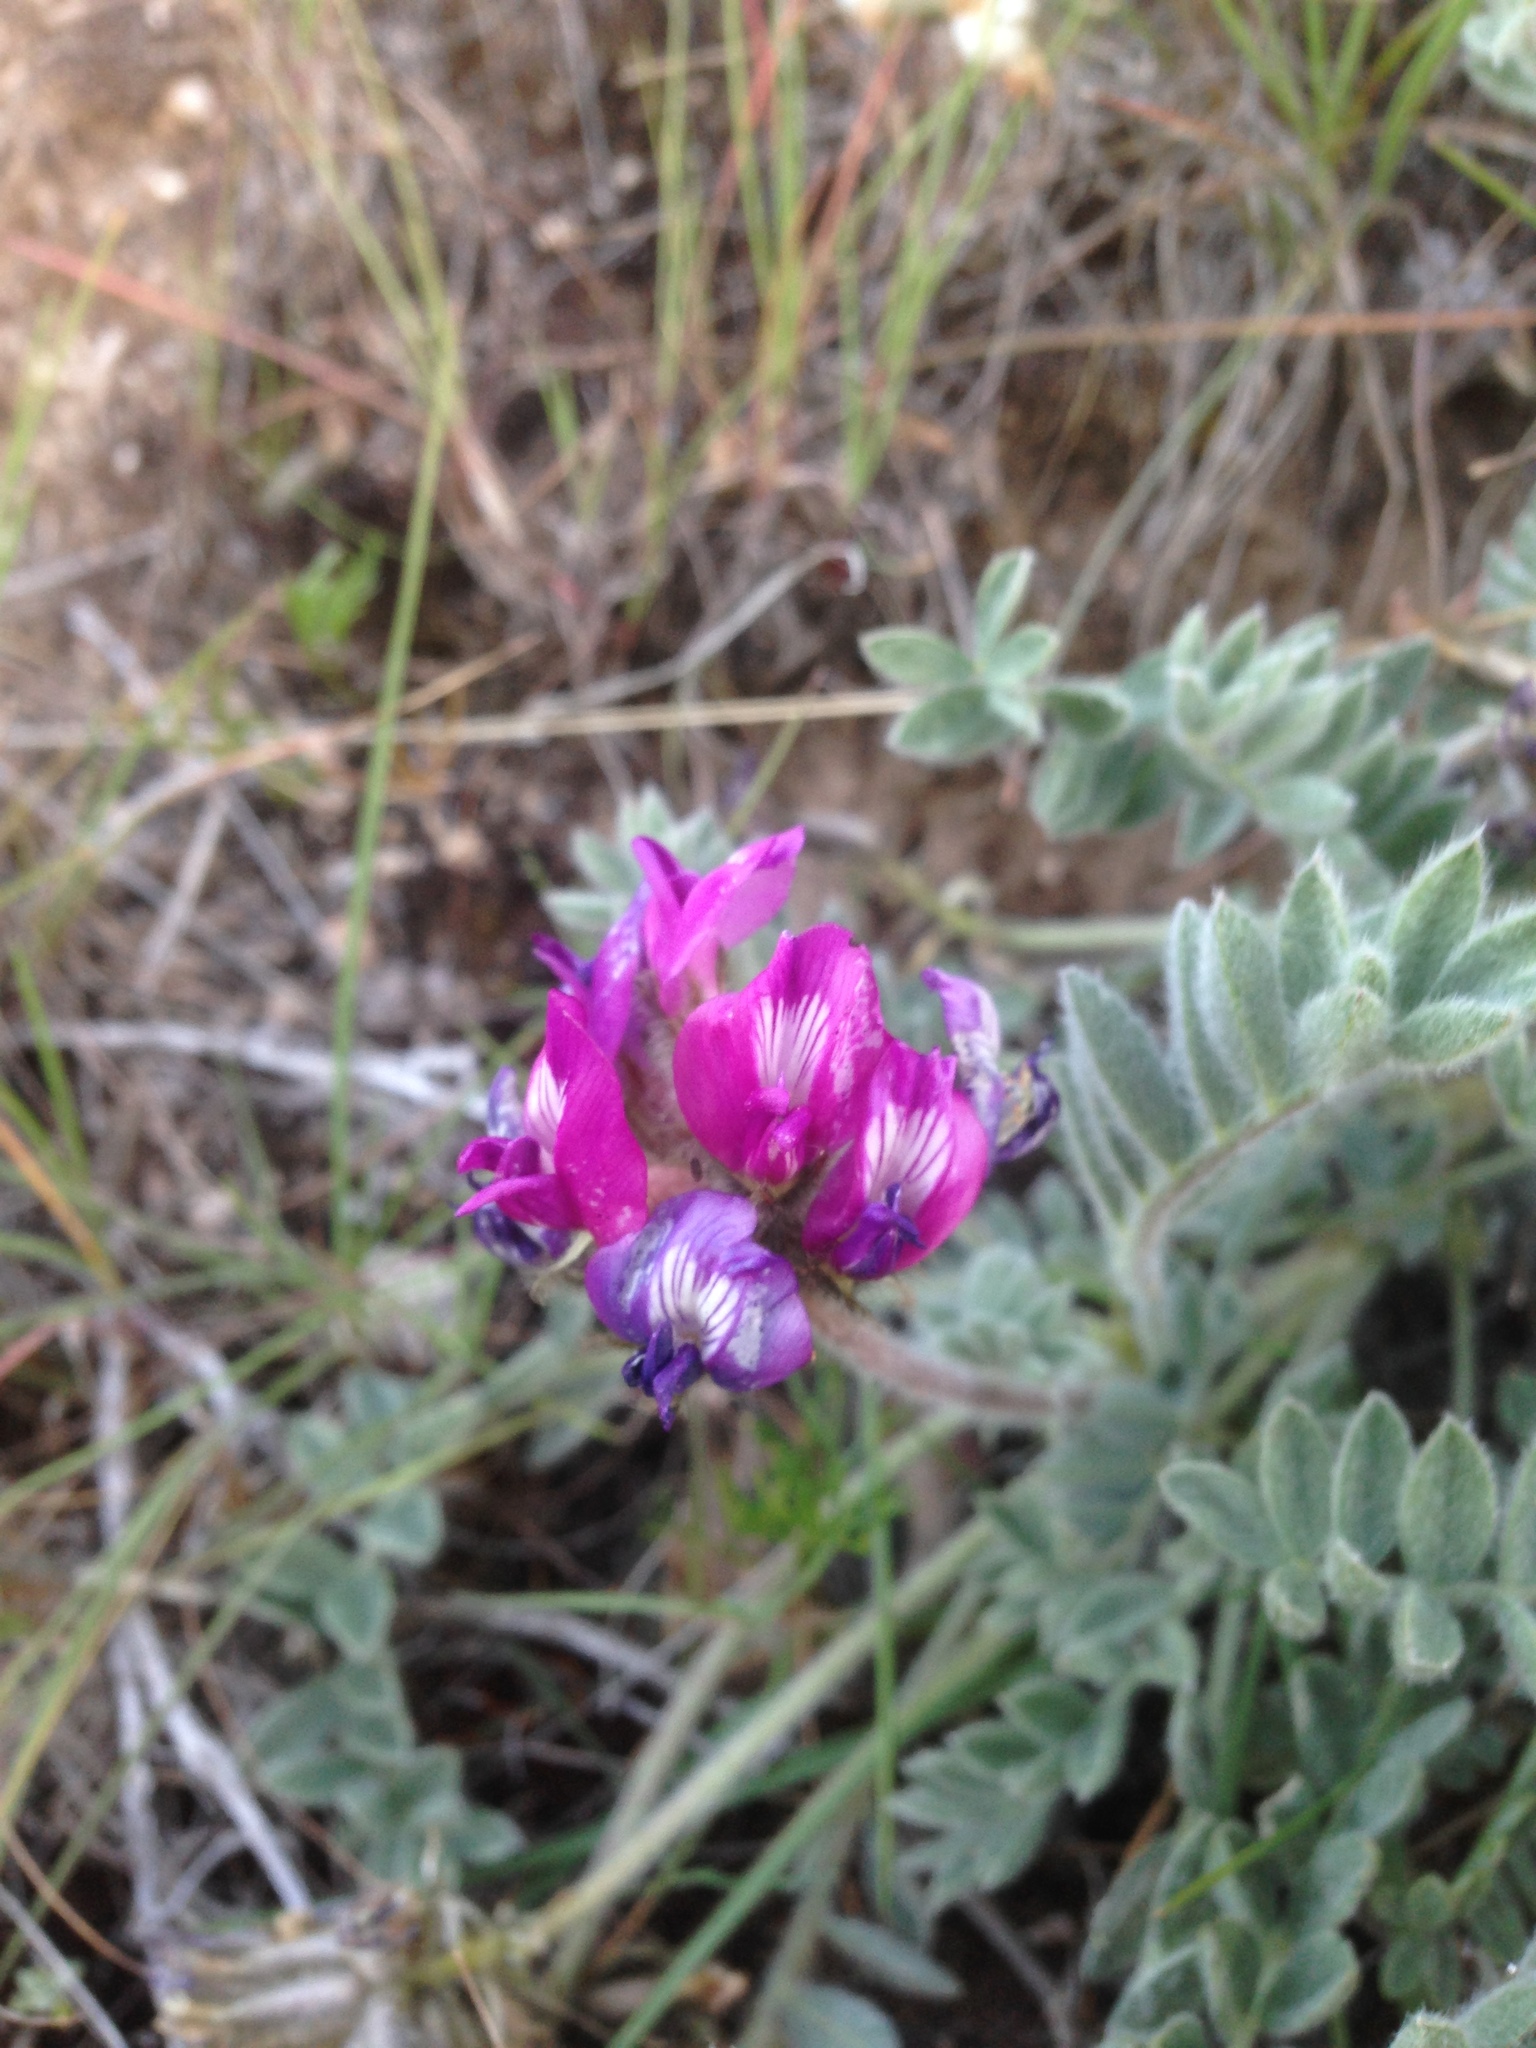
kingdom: Plantae
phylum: Tracheophyta
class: Magnoliopsida
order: Fabales
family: Fabaceae
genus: Astragalus
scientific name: Astragalus purshii
